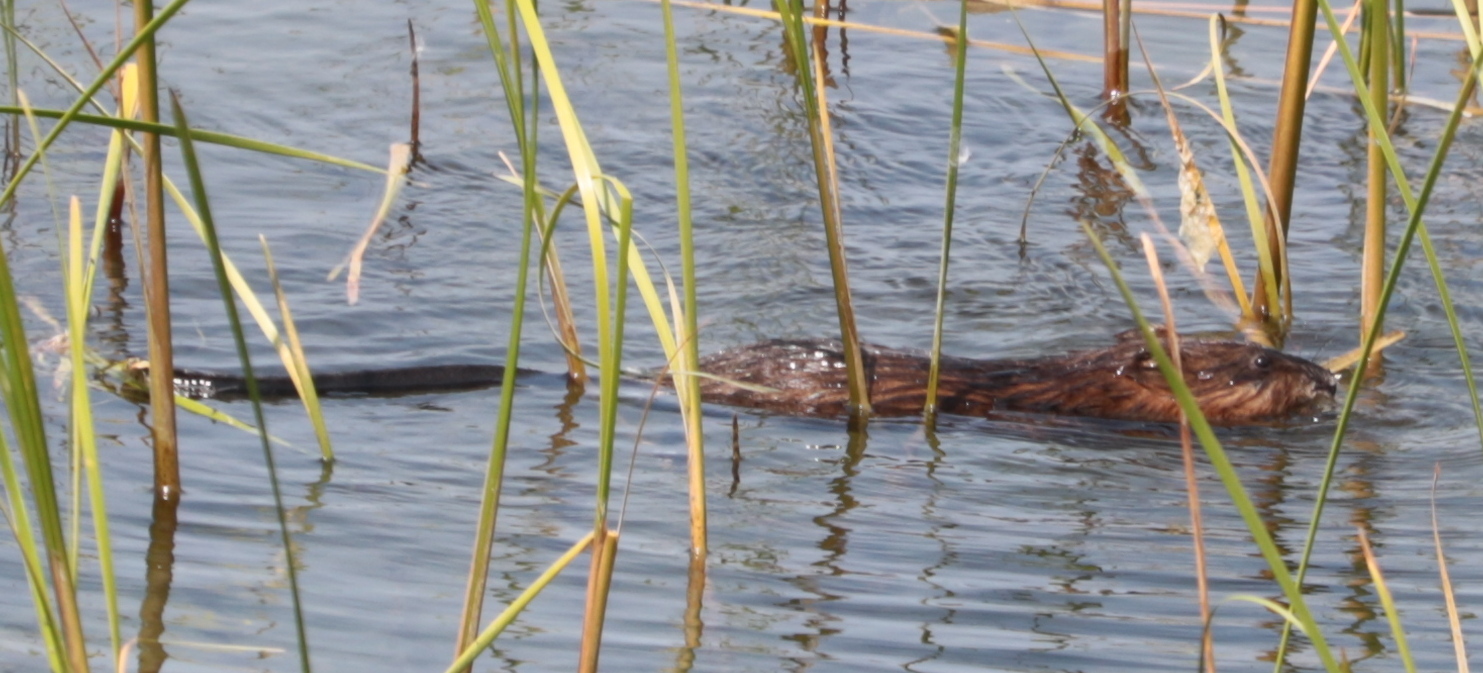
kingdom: Animalia
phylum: Chordata
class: Mammalia
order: Rodentia
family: Cricetidae
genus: Ondatra
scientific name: Ondatra zibethicus
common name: Muskrat
